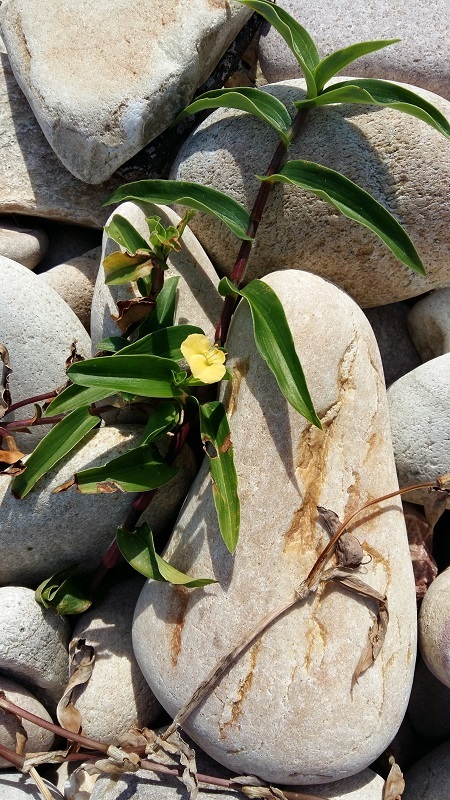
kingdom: Plantae
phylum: Tracheophyta
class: Liliopsida
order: Commelinales
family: Commelinaceae
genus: Commelina
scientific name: Commelina africana
